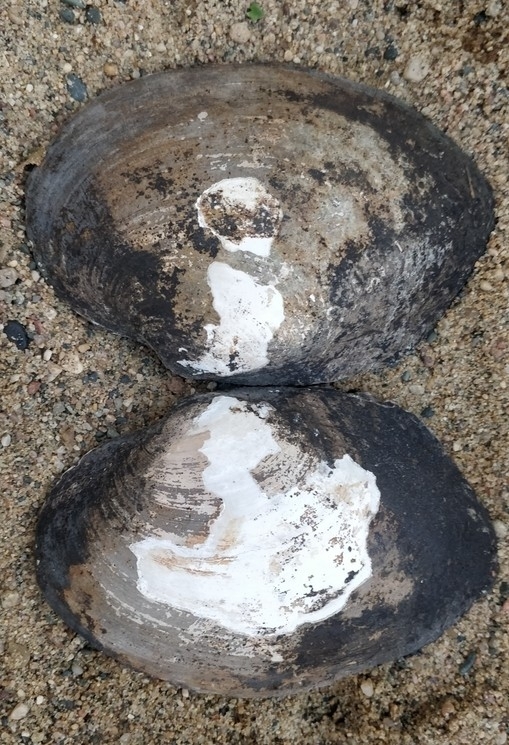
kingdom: Animalia
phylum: Mollusca
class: Bivalvia
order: Unionida
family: Unionidae
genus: Lasmigona
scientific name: Lasmigona complanata
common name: White heelsplitter
